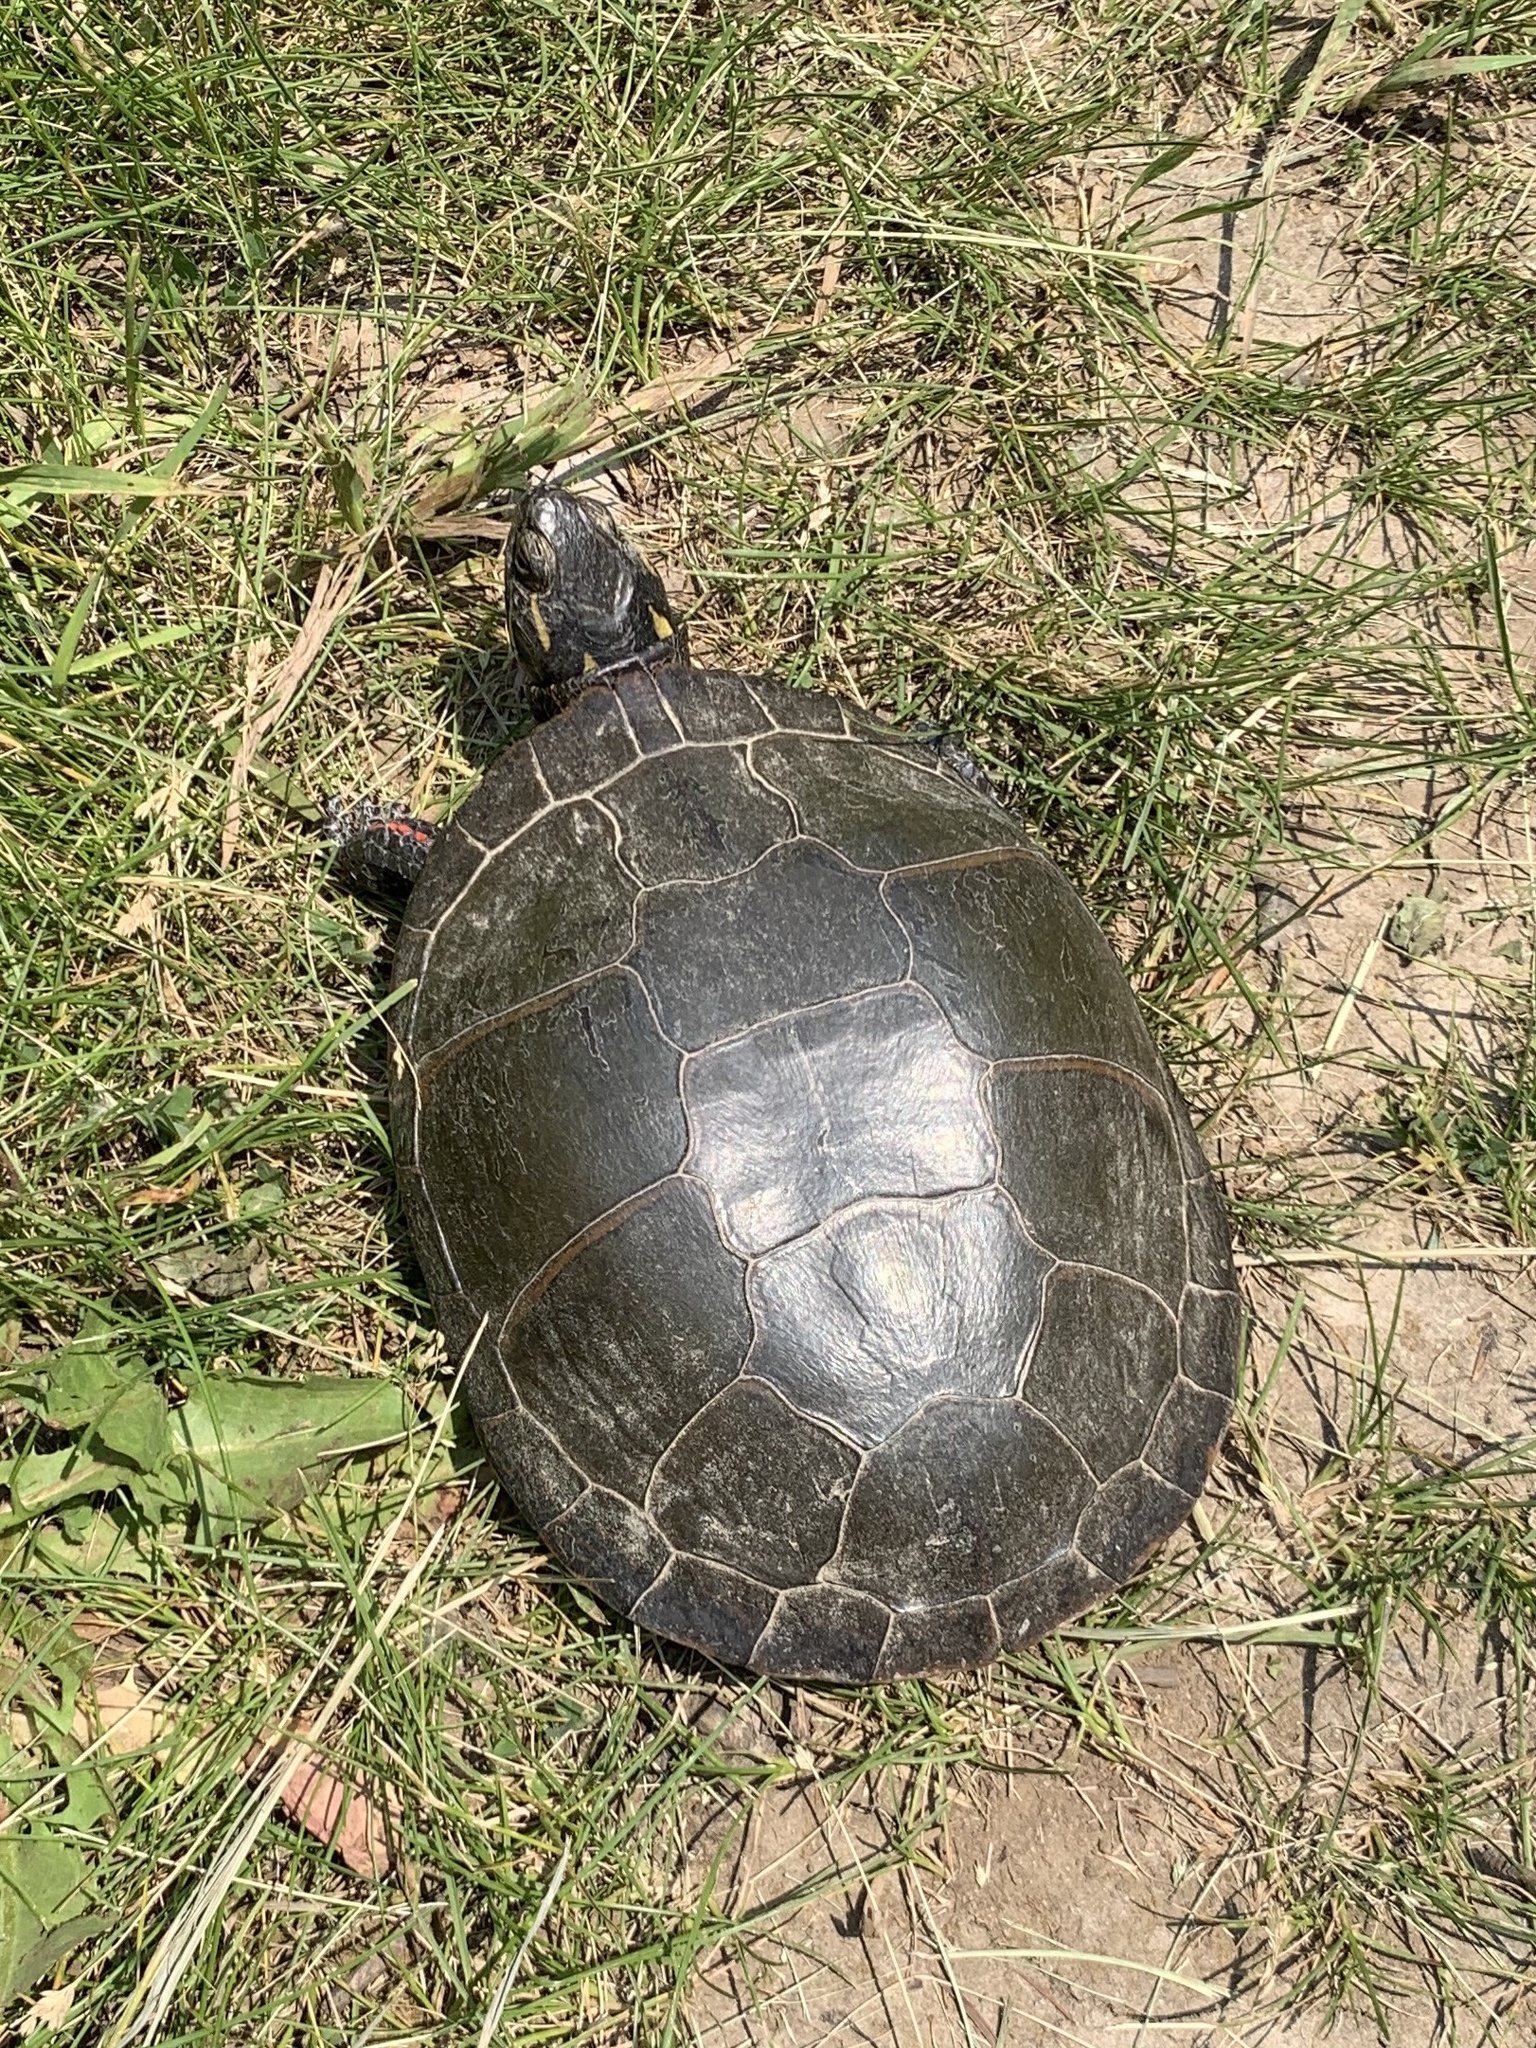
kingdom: Animalia
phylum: Chordata
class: Testudines
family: Emydidae
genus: Chrysemys
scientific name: Chrysemys picta
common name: Painted turtle
